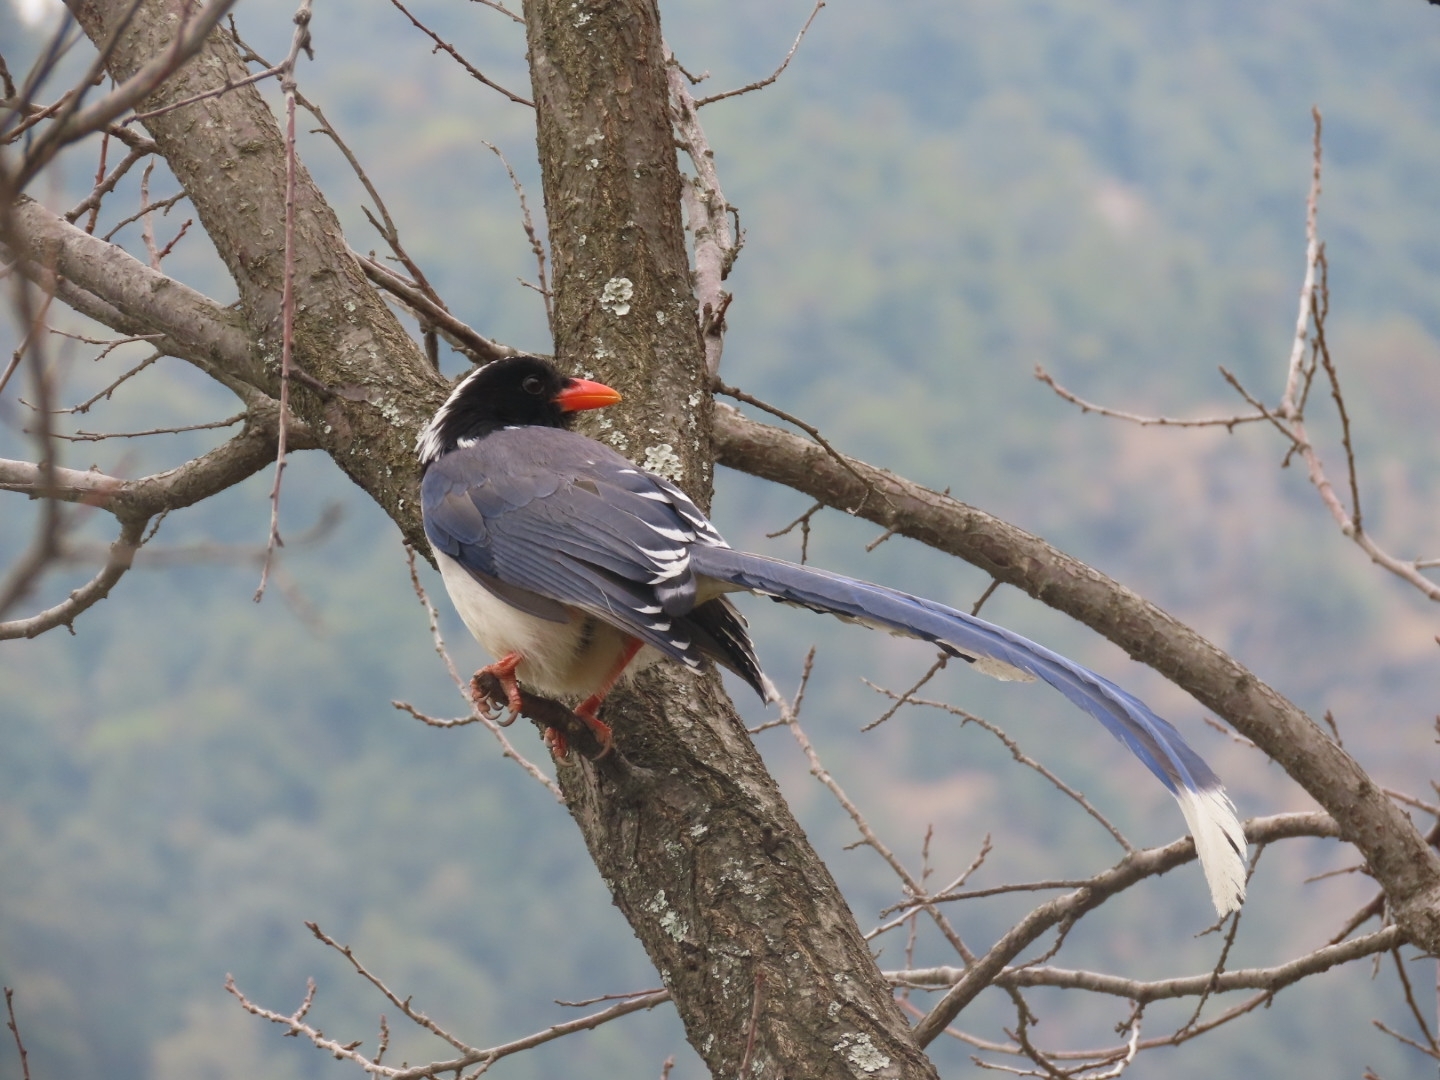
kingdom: Animalia
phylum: Chordata
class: Aves
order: Passeriformes
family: Corvidae
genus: Urocissa
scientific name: Urocissa erythroryncha
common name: Red-billed blue magpie
